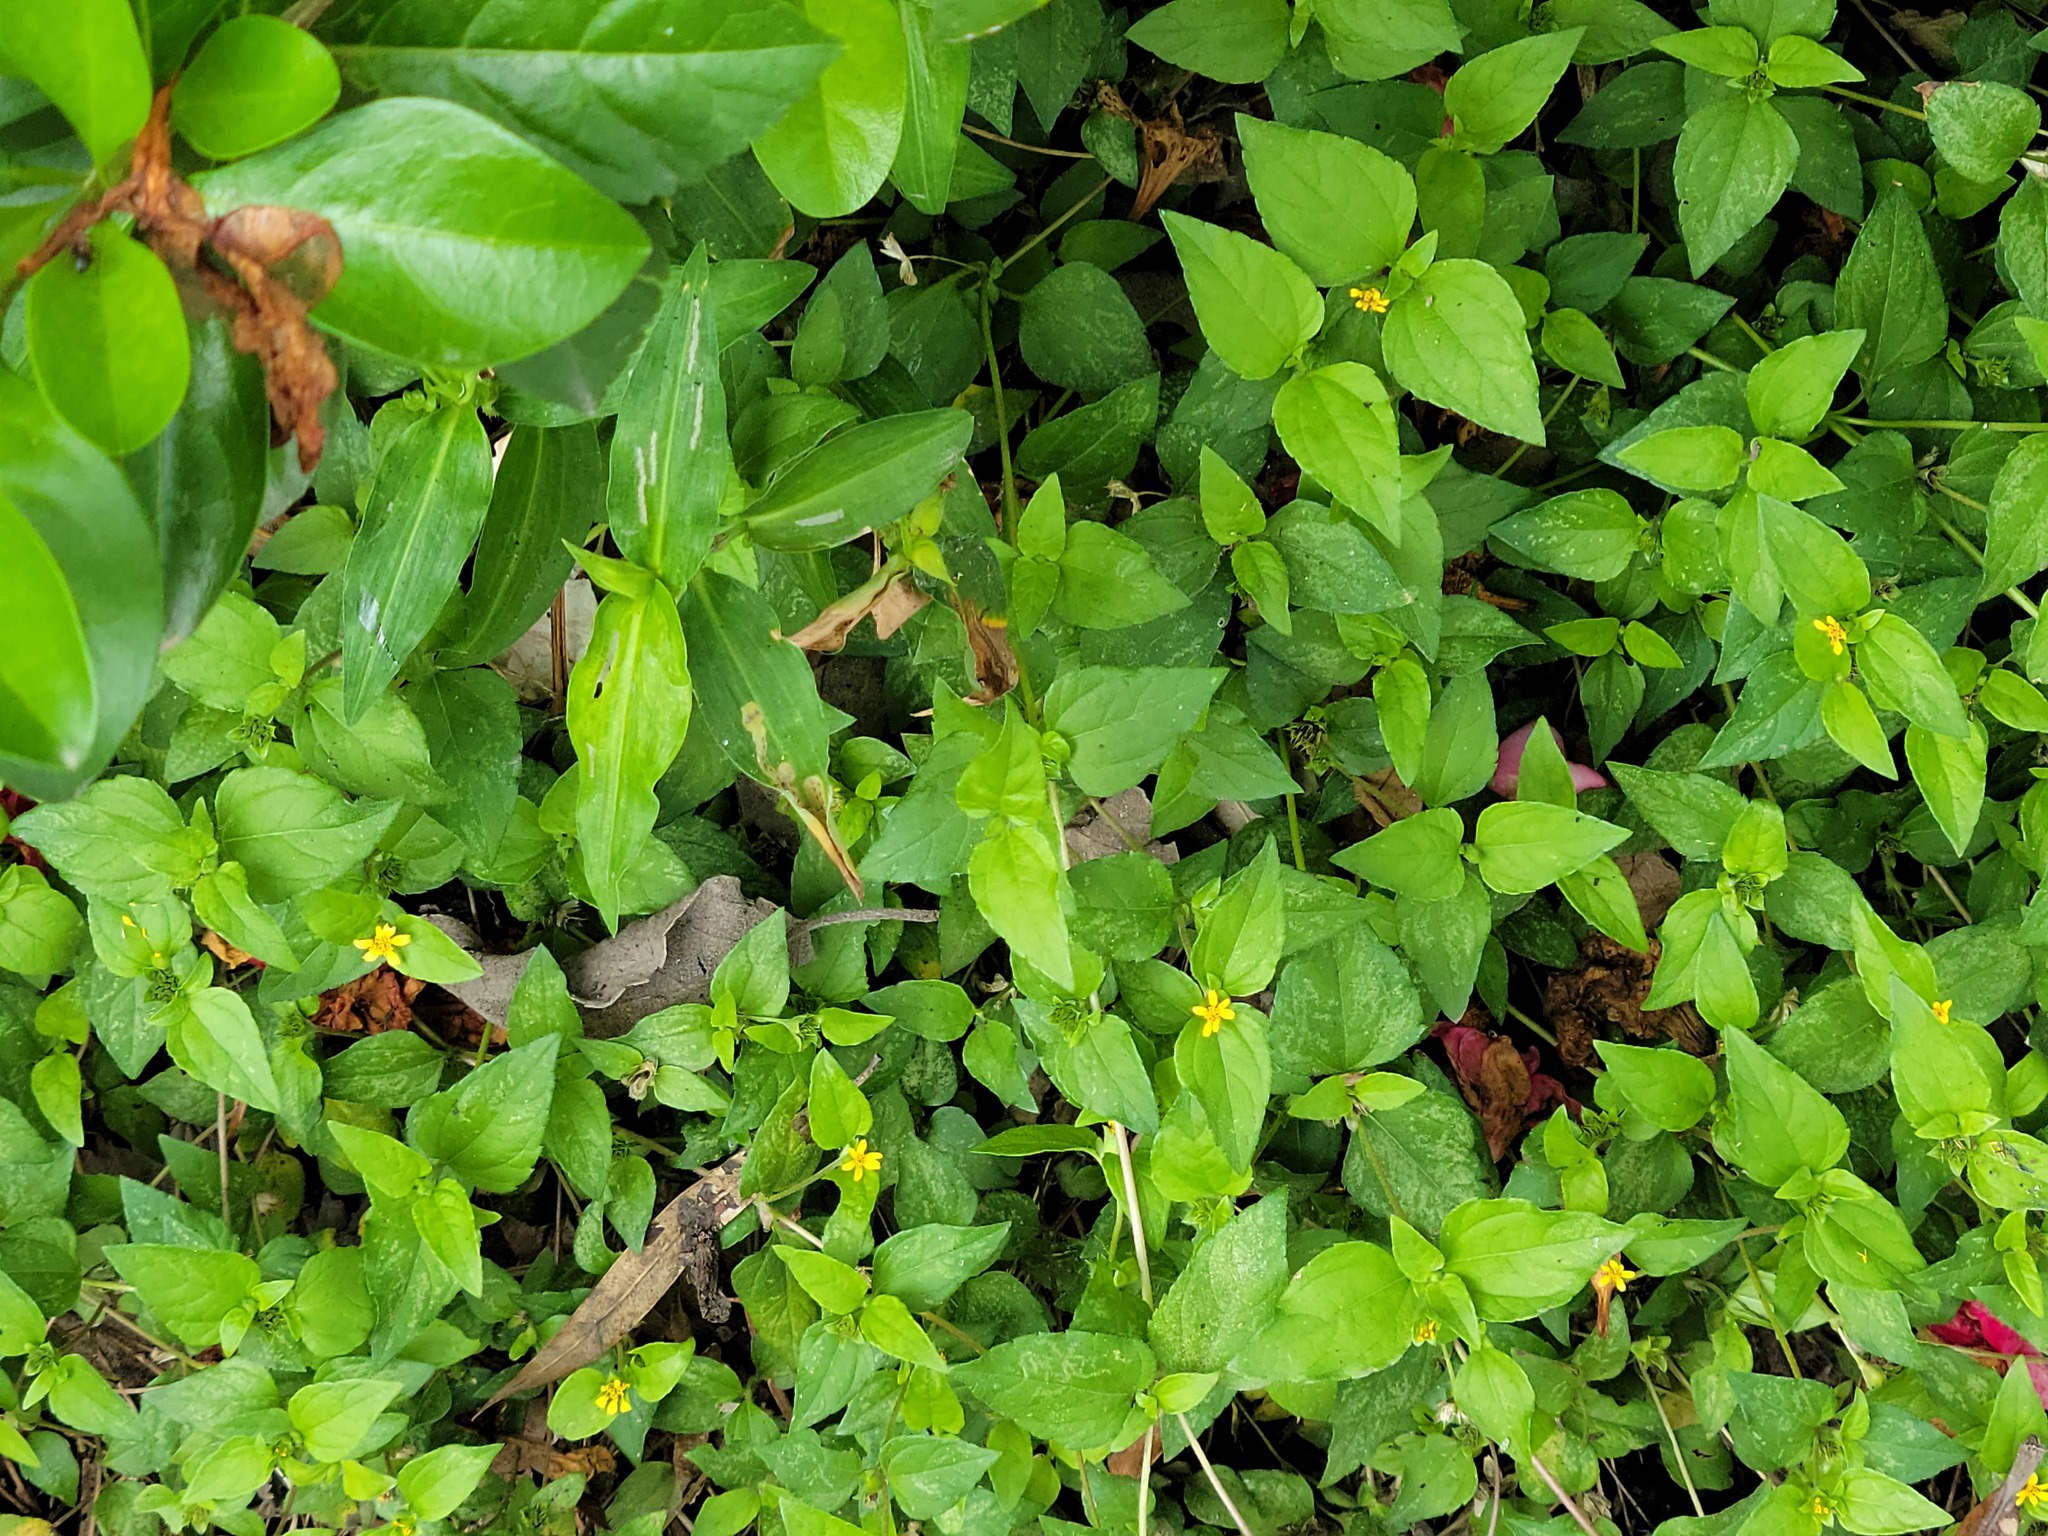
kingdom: Plantae
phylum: Tracheophyta
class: Magnoliopsida
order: Asterales
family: Asteraceae
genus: Calyptocarpus
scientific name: Calyptocarpus vialis
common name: Straggler daisy
